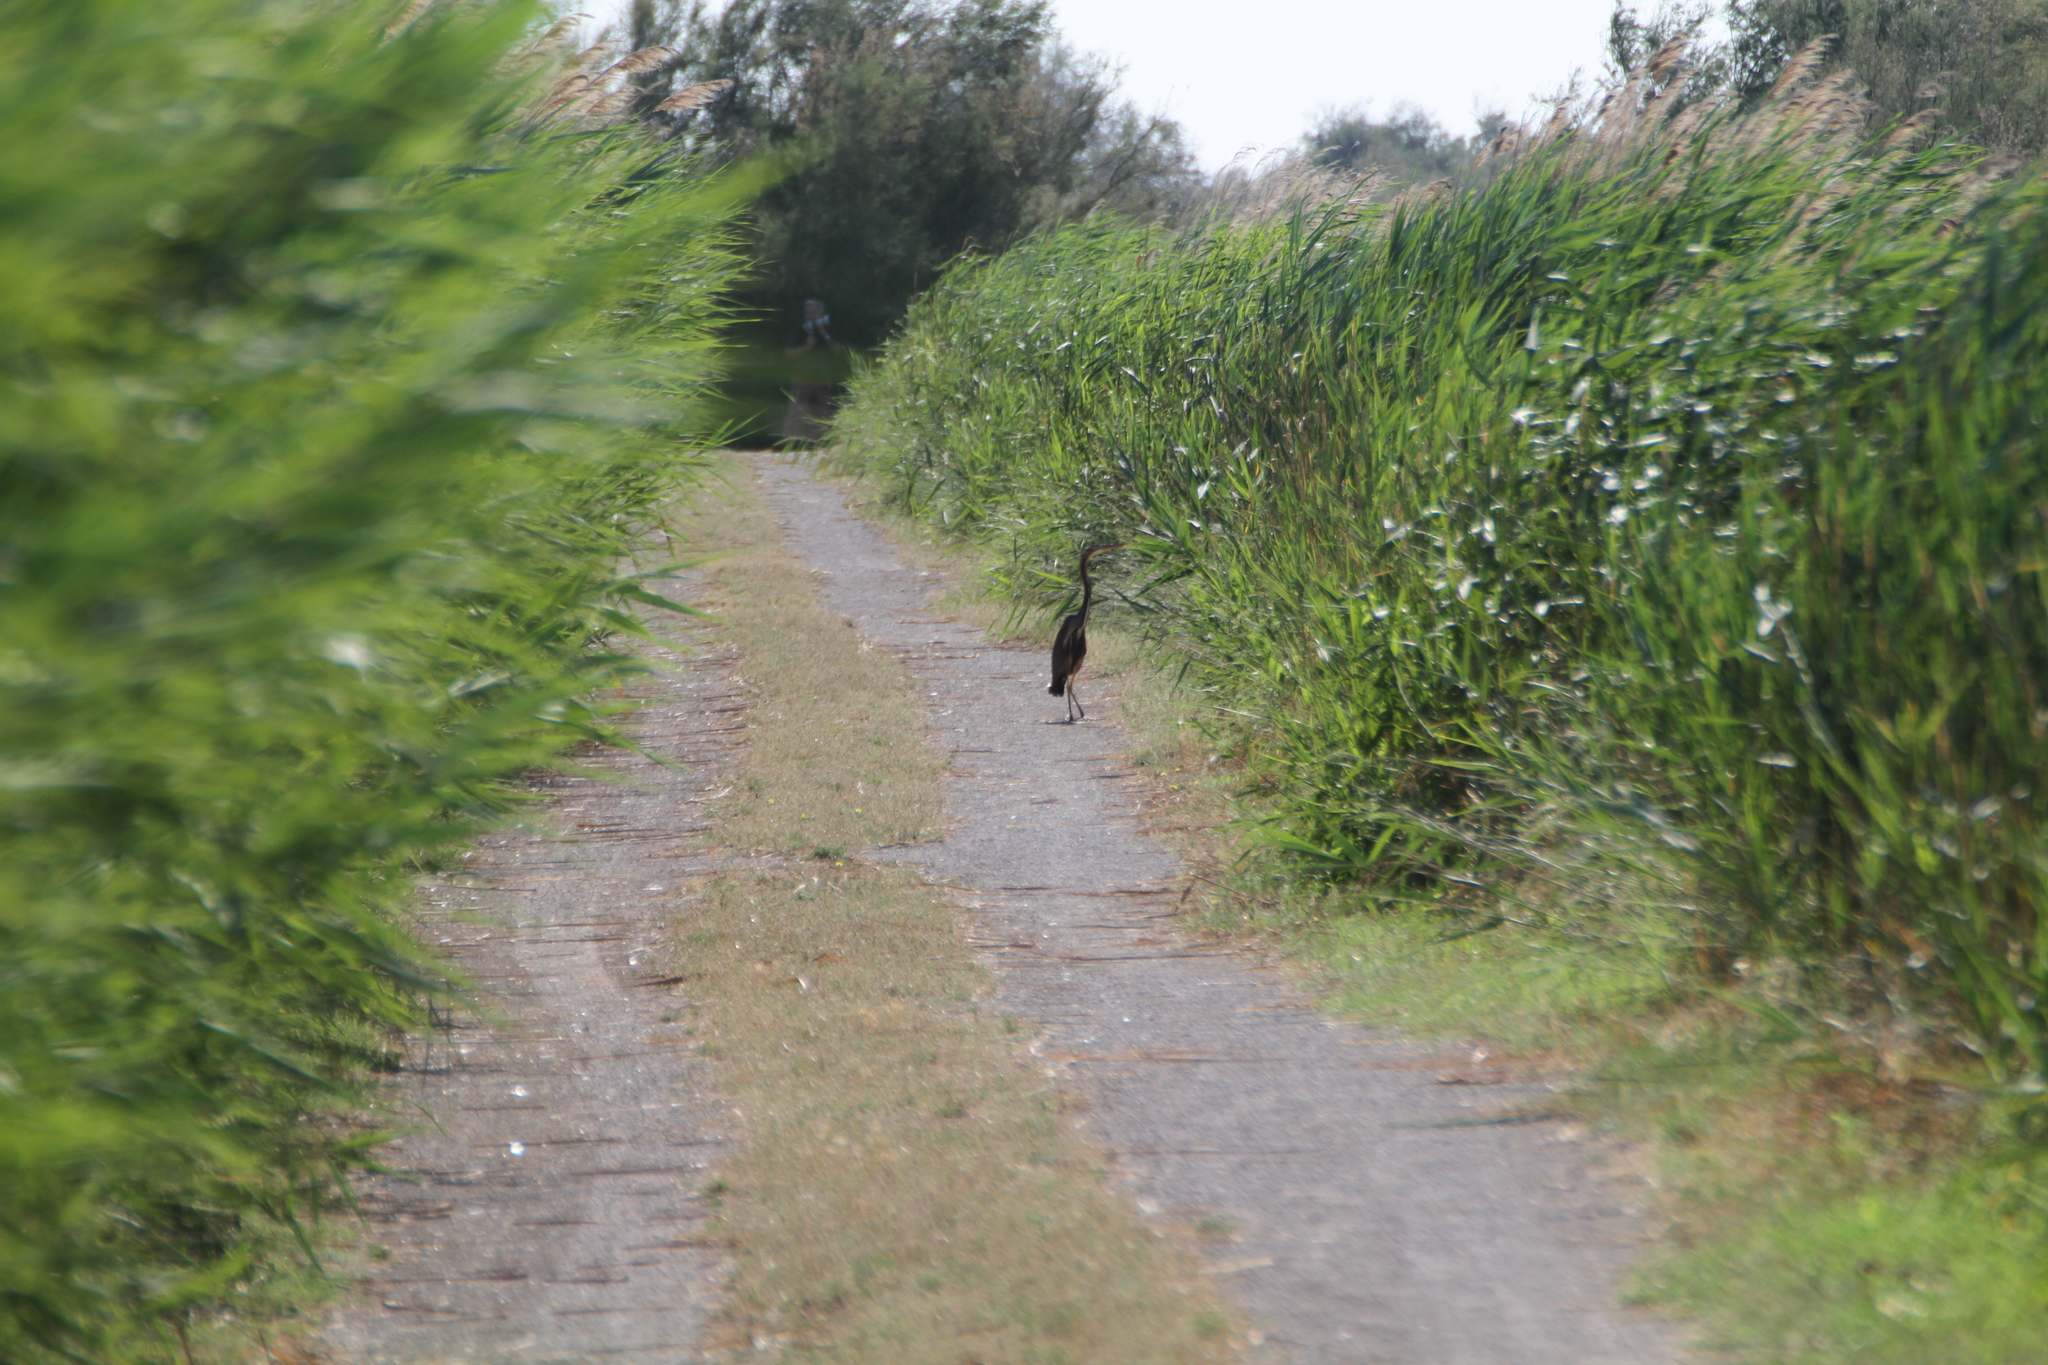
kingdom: Animalia
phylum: Chordata
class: Aves
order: Pelecaniformes
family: Ardeidae
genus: Ardea
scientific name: Ardea purpurea
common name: Purple heron
